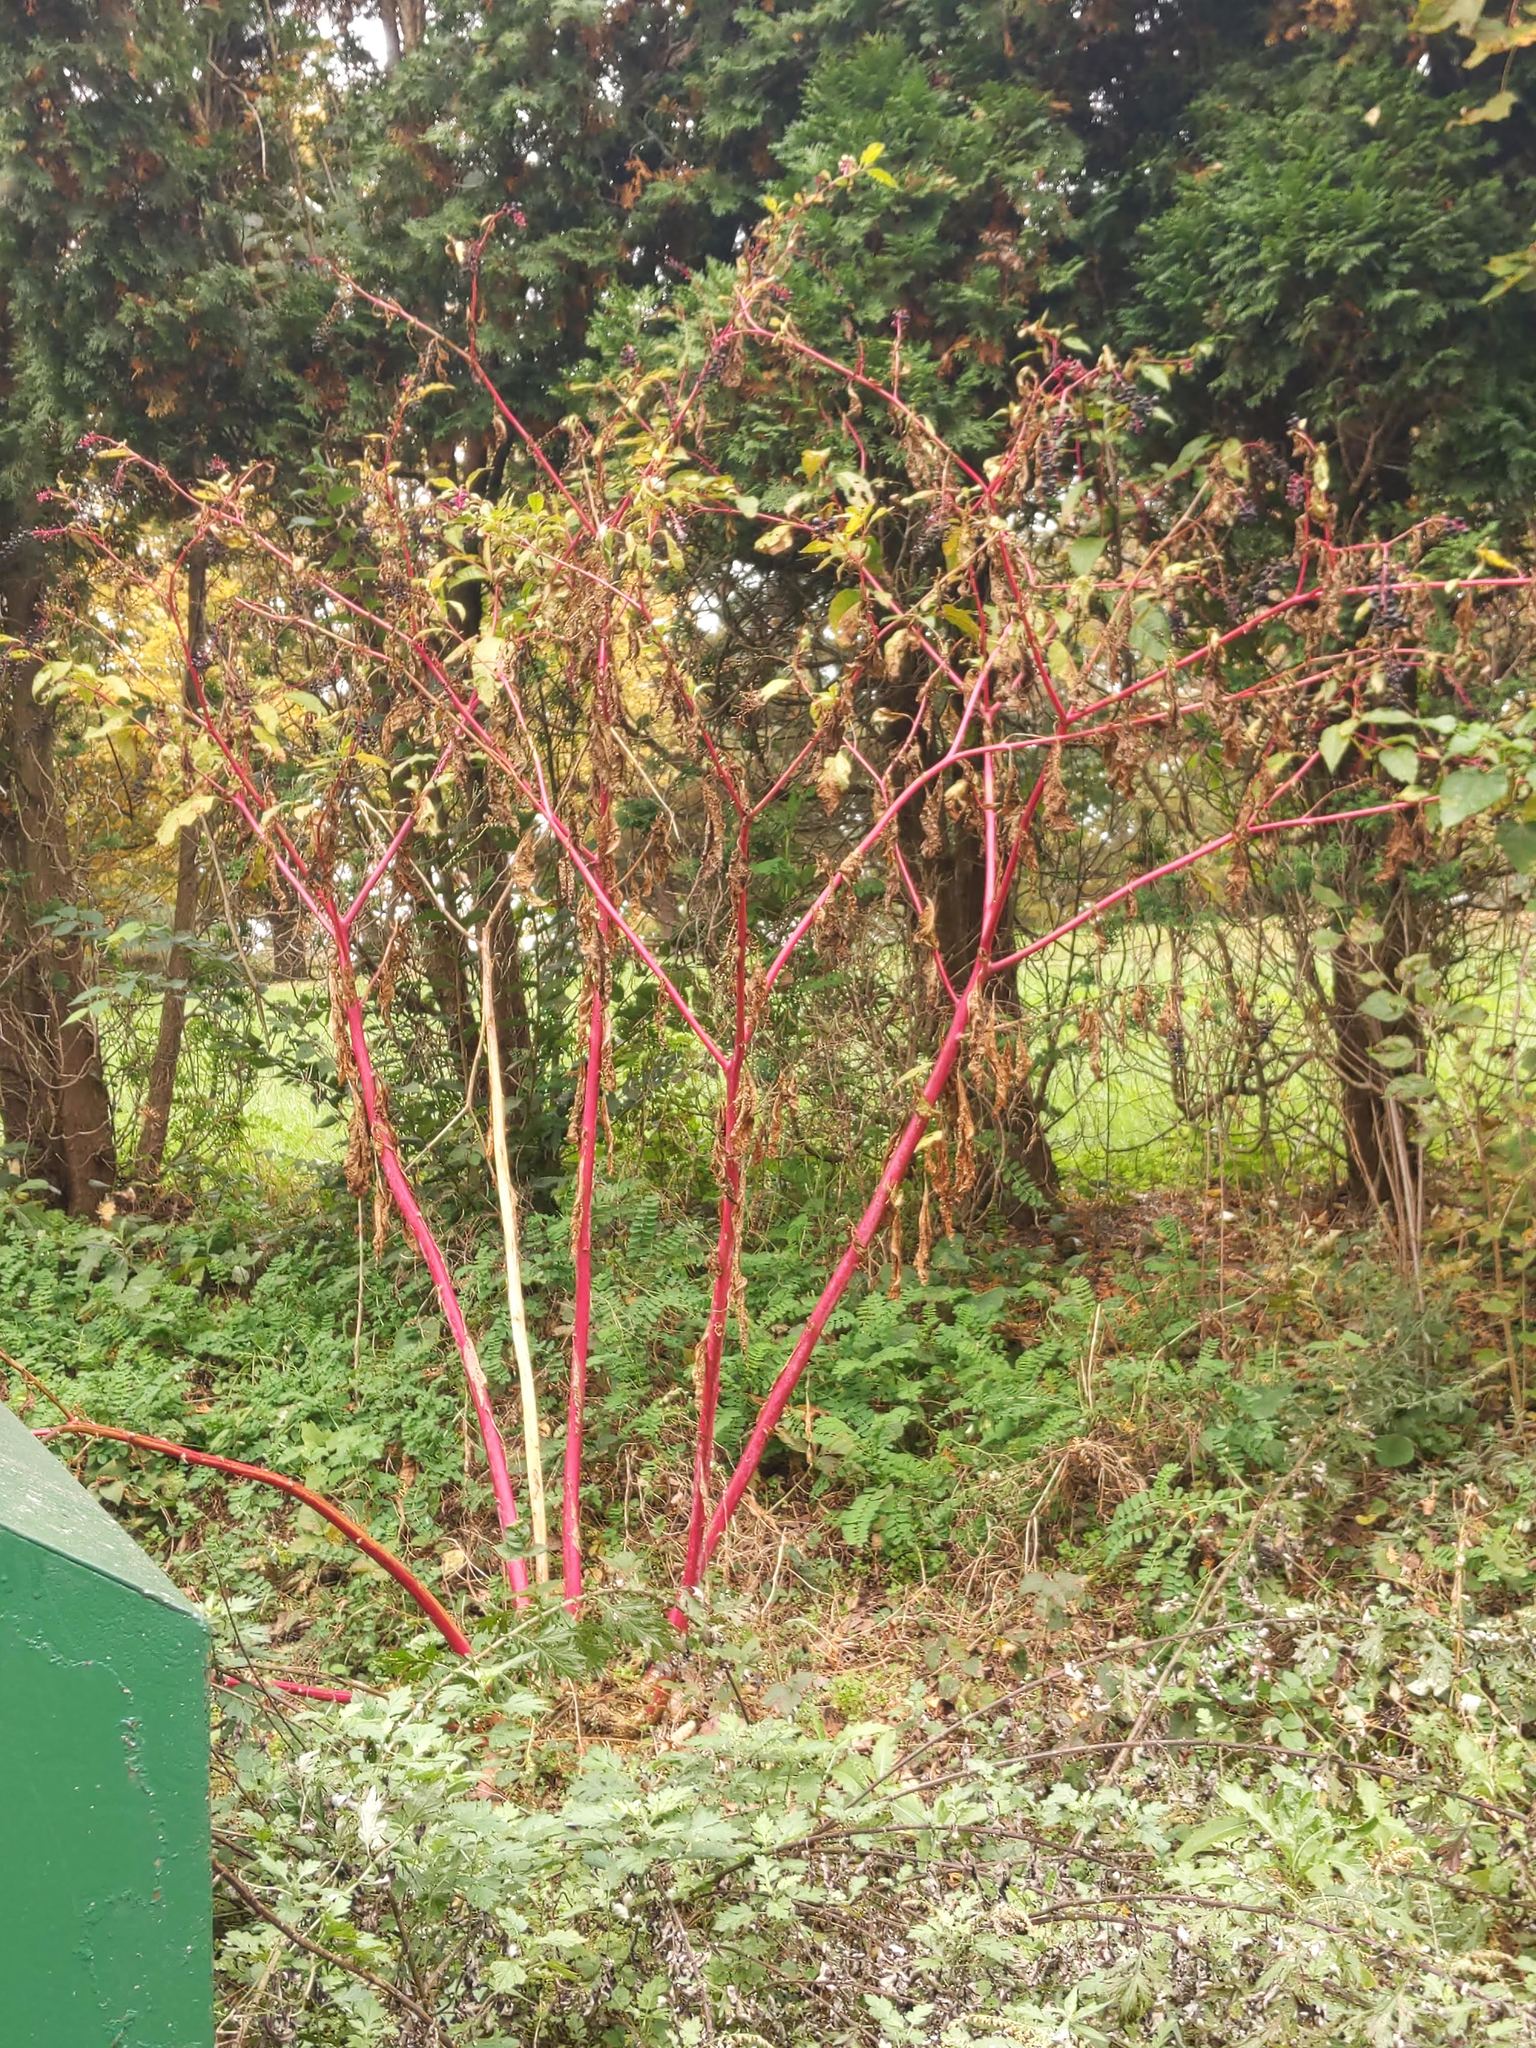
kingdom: Plantae
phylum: Tracheophyta
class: Magnoliopsida
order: Caryophyllales
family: Phytolaccaceae
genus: Phytolacca
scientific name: Phytolacca americana
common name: American pokeweed
